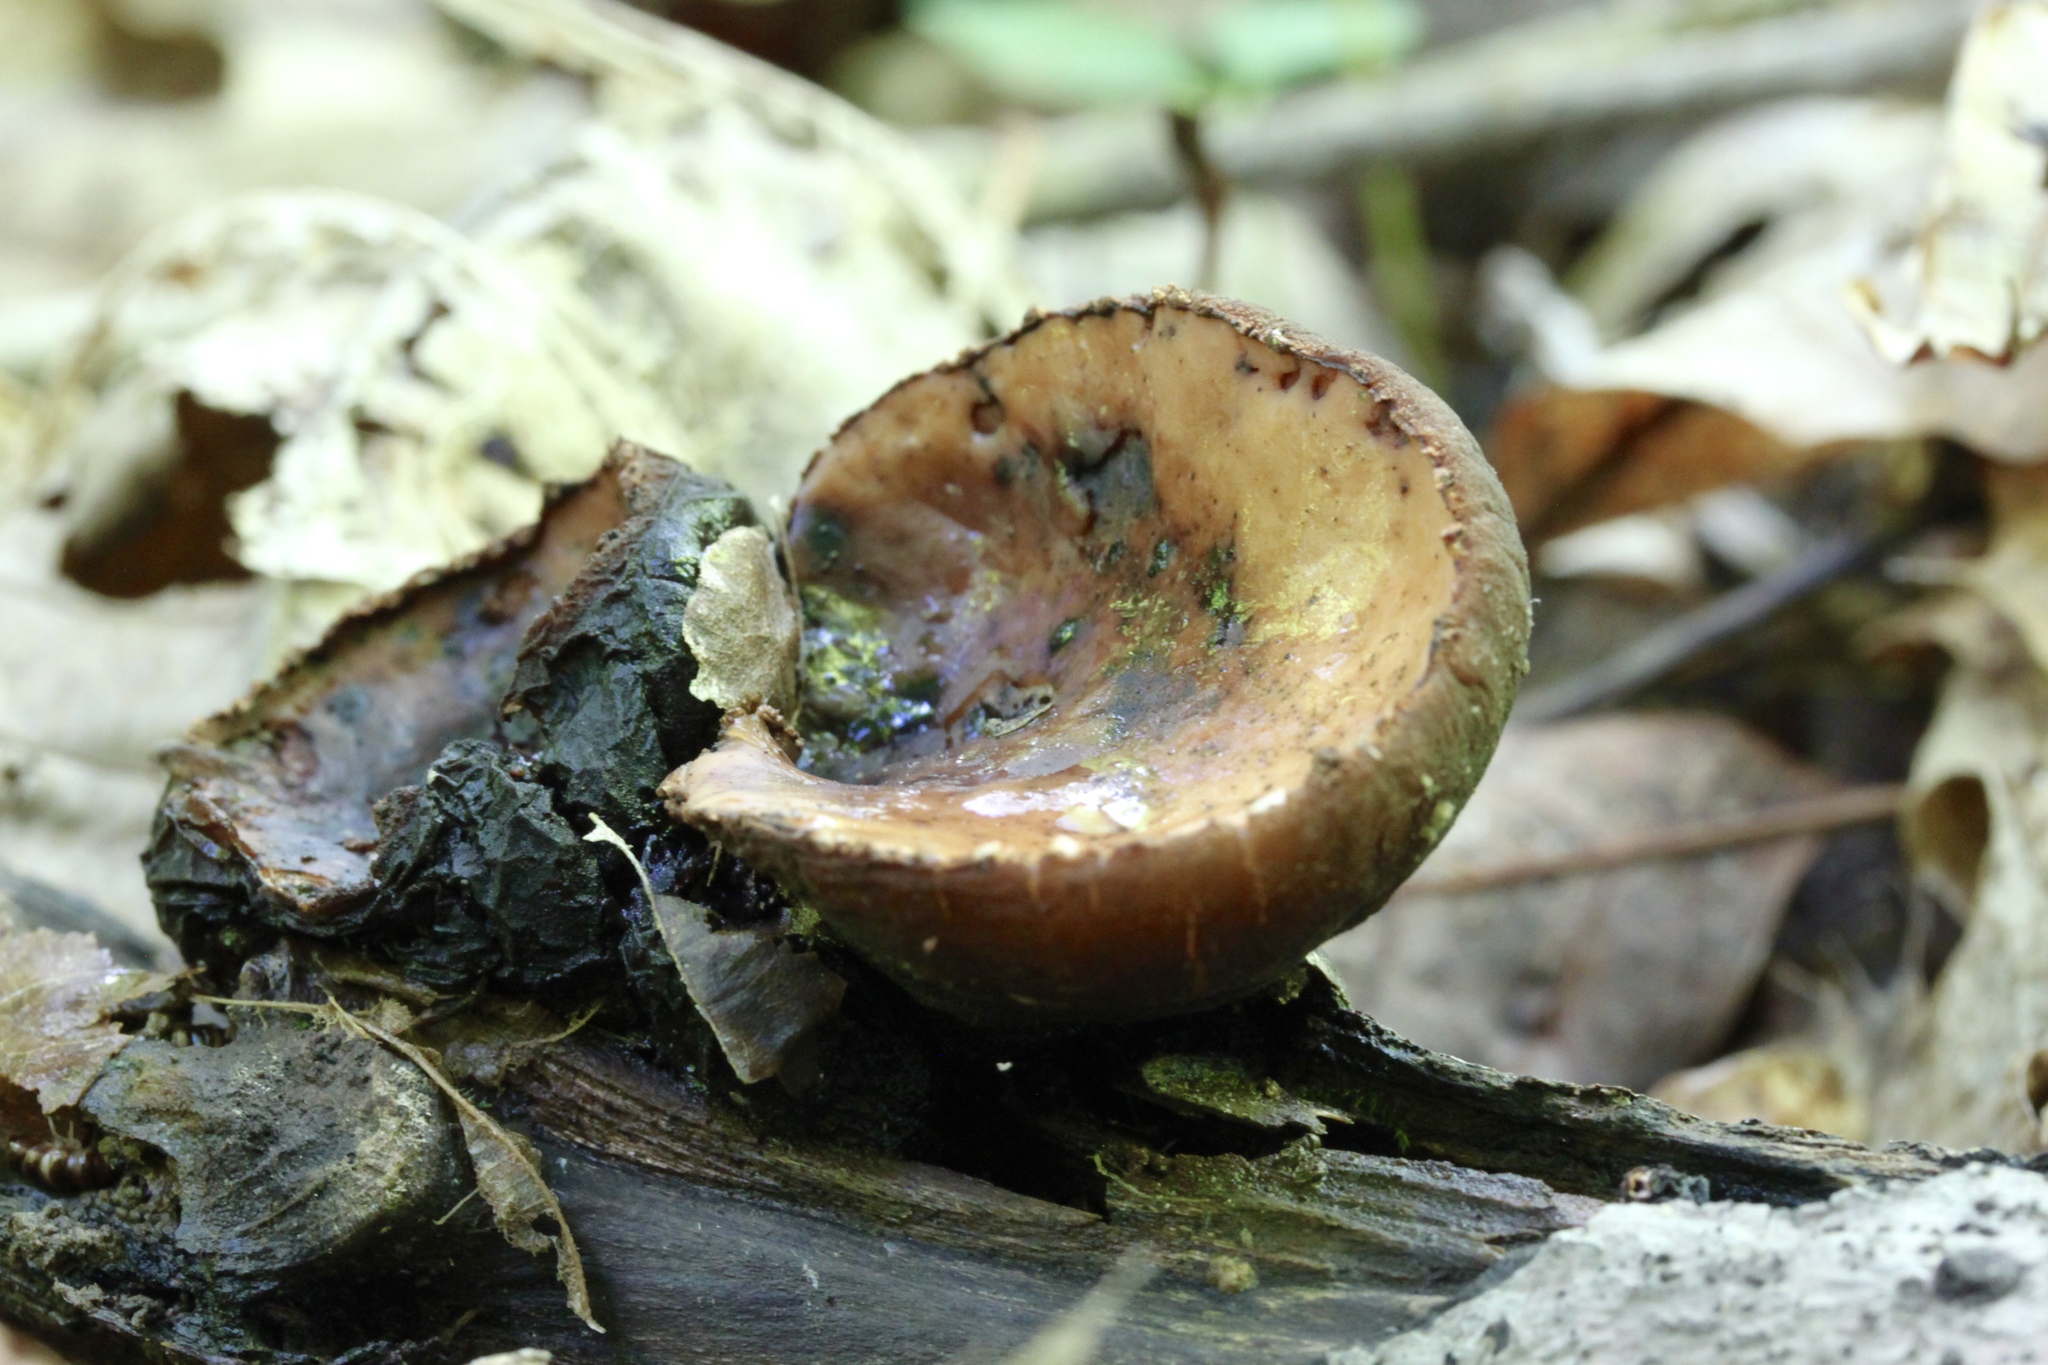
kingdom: Fungi
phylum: Ascomycota
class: Pezizomycetes
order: Pezizales
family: Sarcosomataceae
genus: Galiella
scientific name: Galiella rufa
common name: Hairy rubber cup
